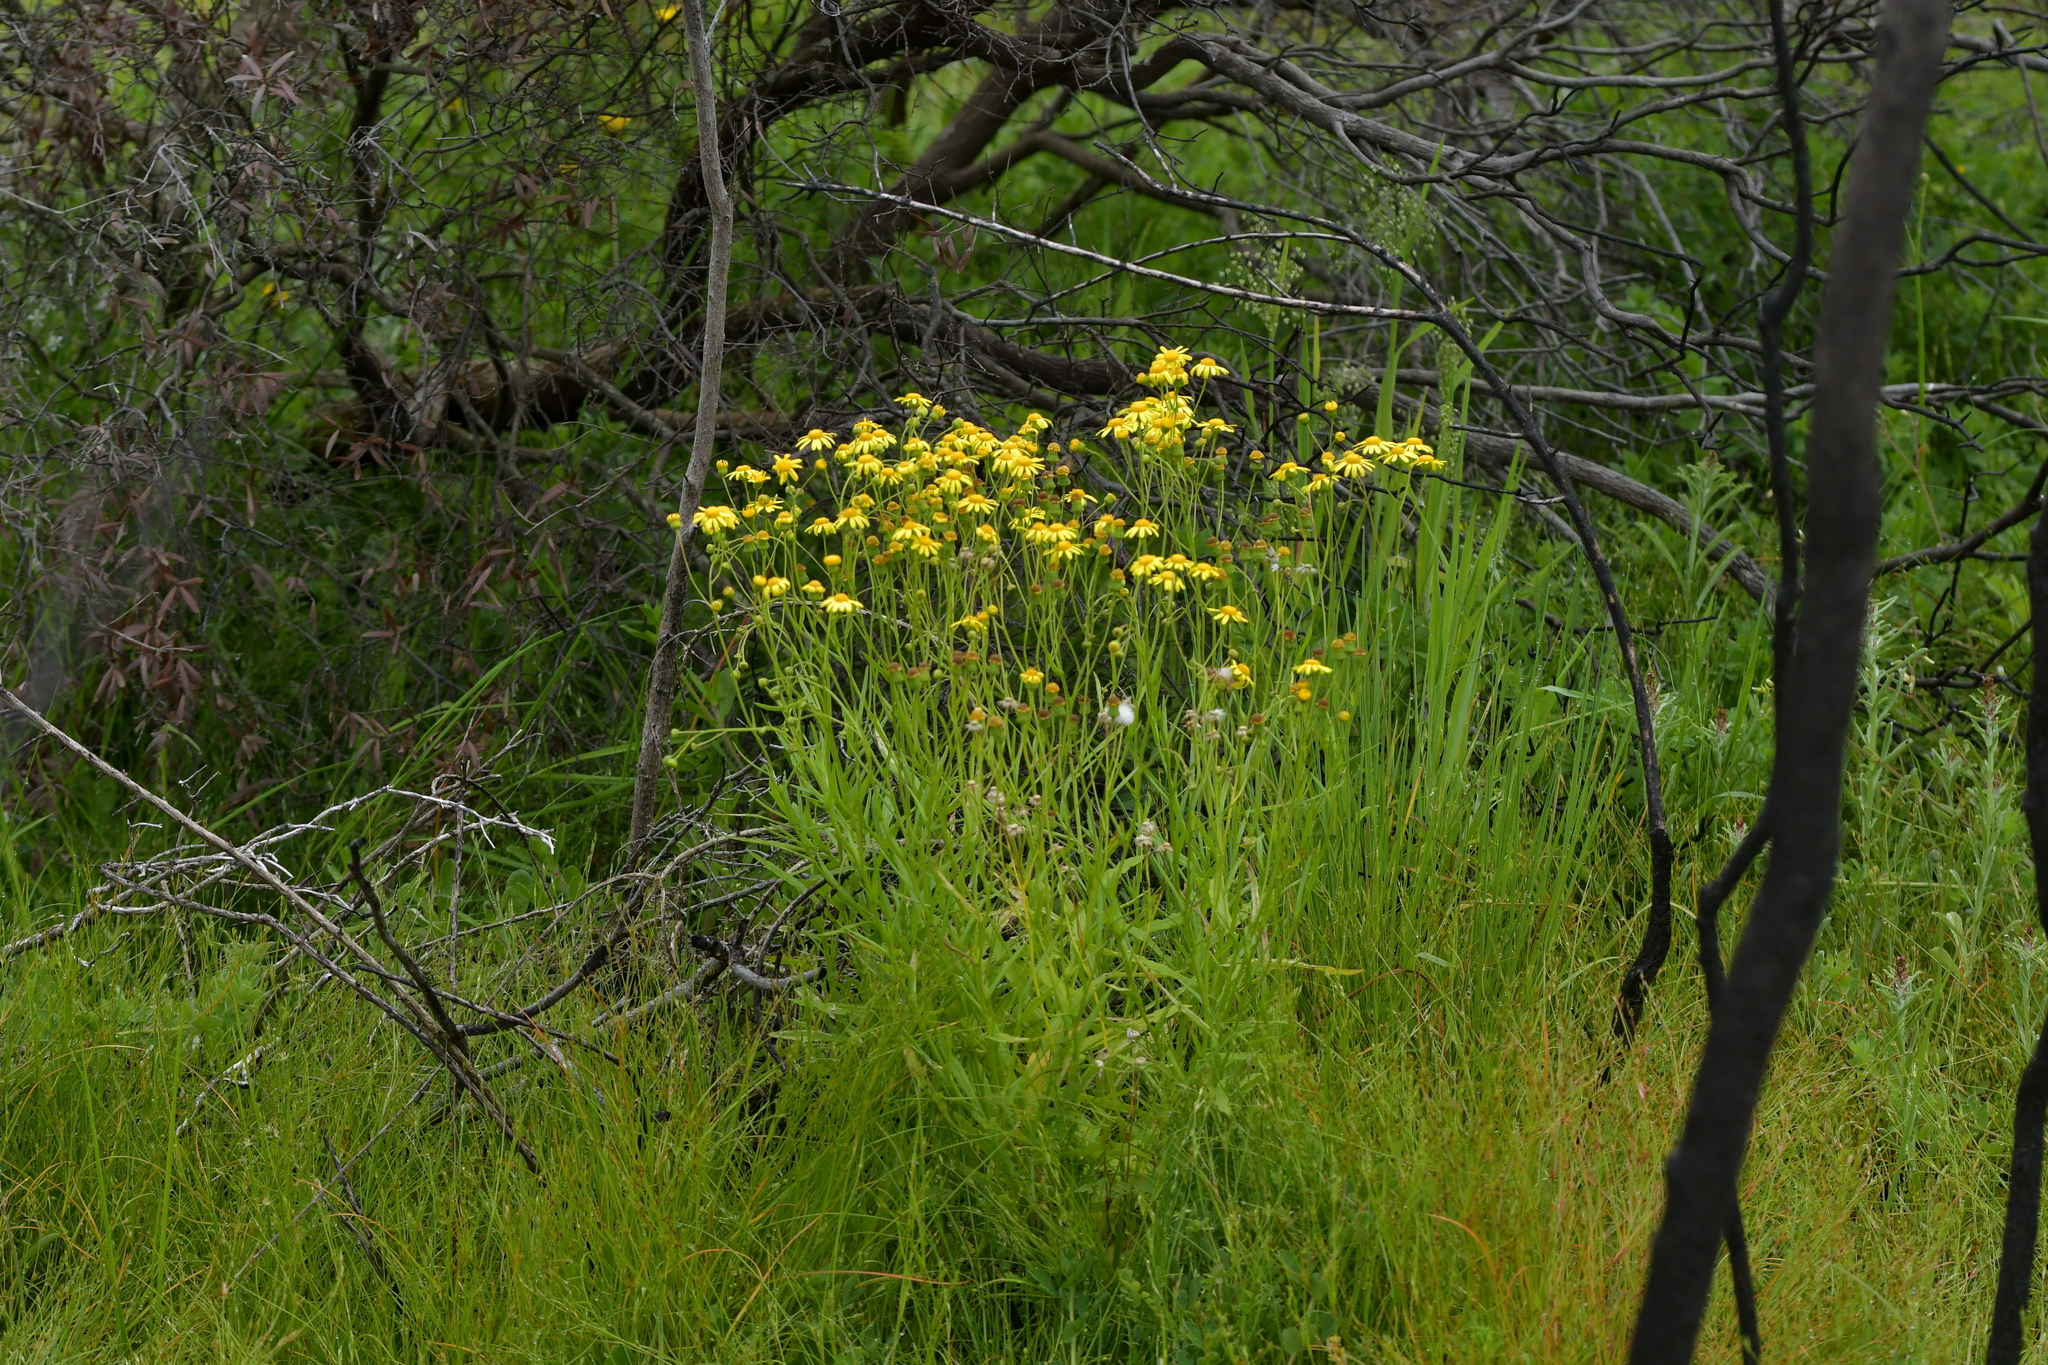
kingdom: Plantae
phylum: Tracheophyta
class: Magnoliopsida
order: Asterales
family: Asteraceae
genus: Senecio
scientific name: Senecio skirrhodon
